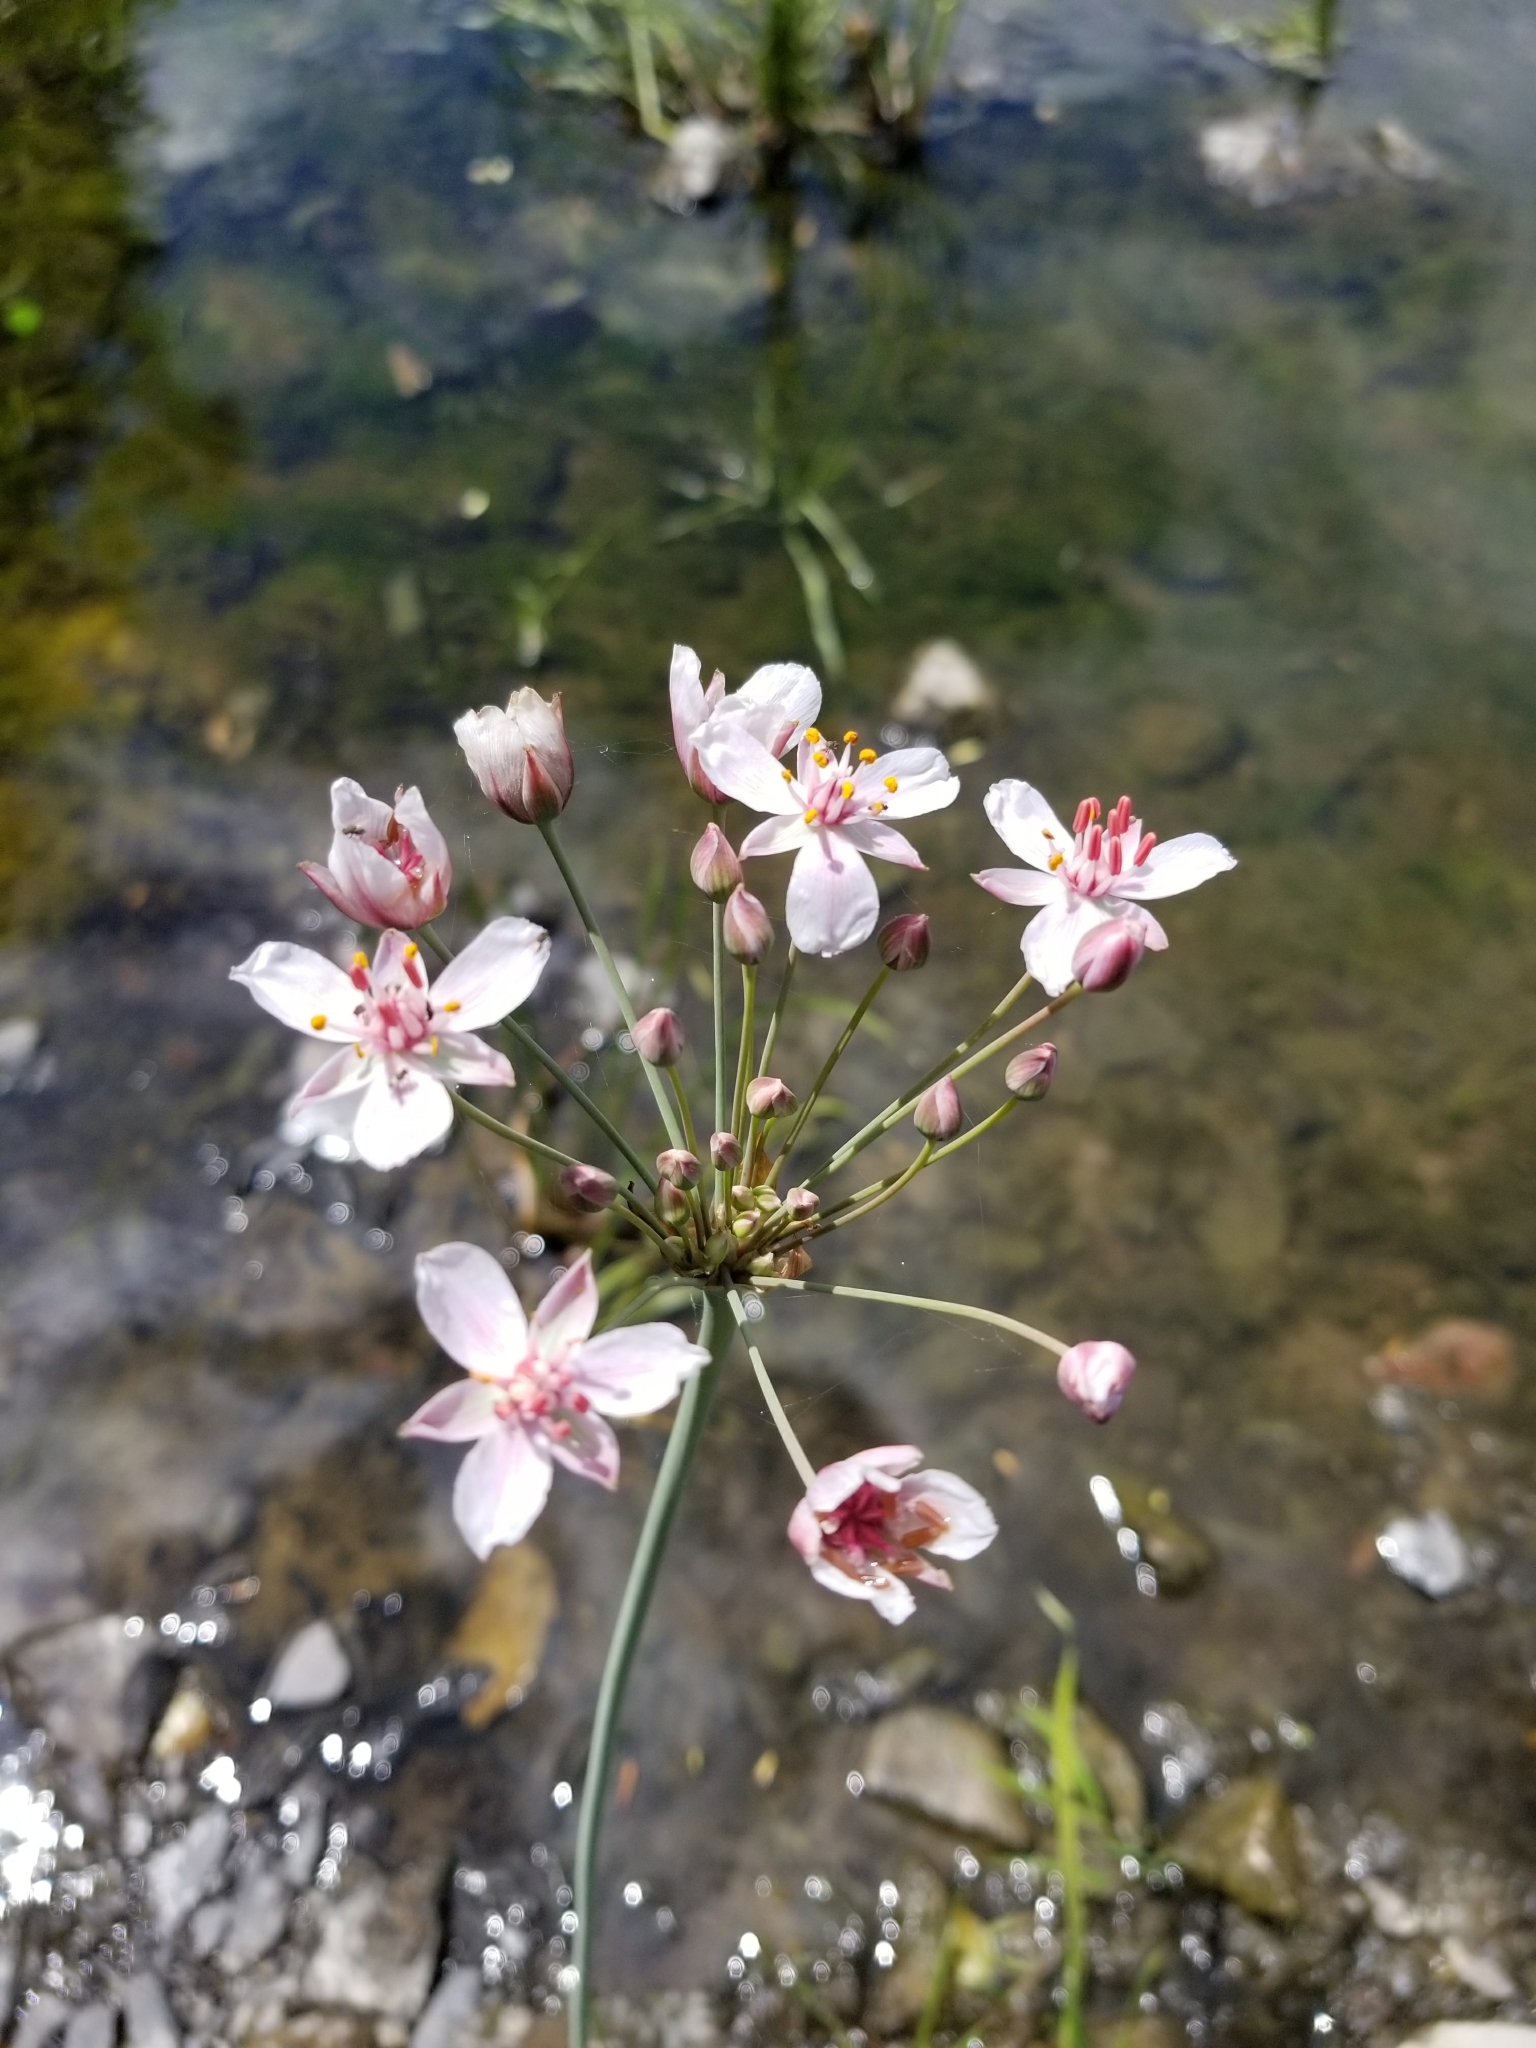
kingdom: Plantae
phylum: Tracheophyta
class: Liliopsida
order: Alismatales
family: Butomaceae
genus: Butomus
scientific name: Butomus umbellatus
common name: Flowering-rush
